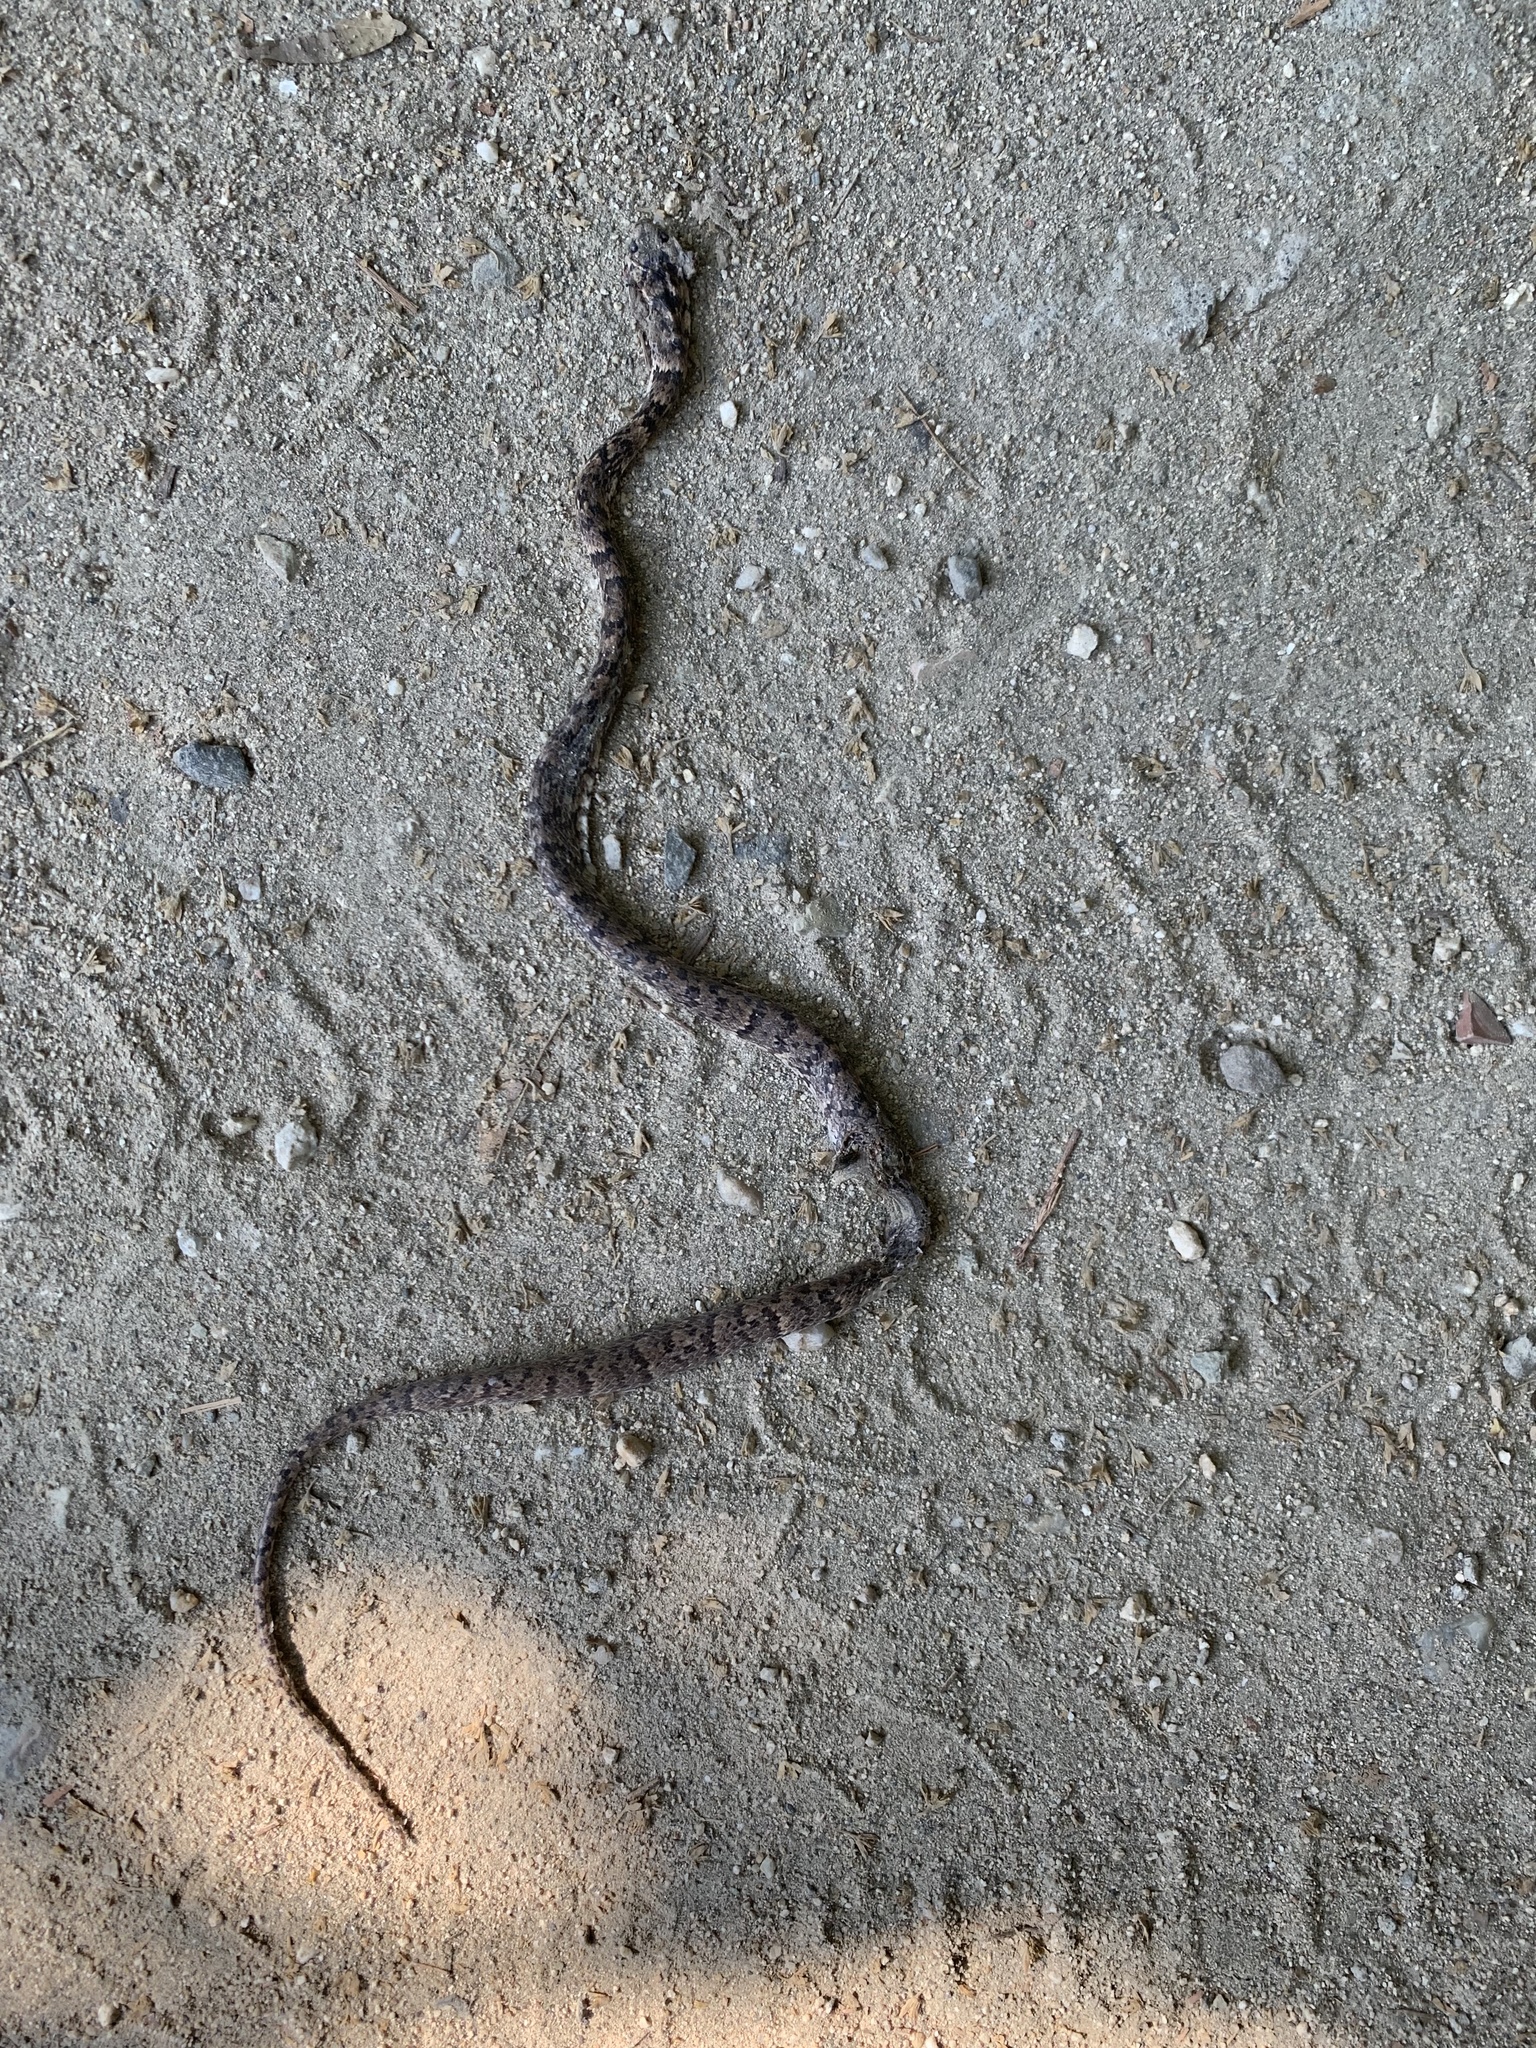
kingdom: Animalia
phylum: Chordata
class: Squamata
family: Colubridae
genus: Sibon
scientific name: Sibon nebulatus
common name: Cloudy snail-eating snake
